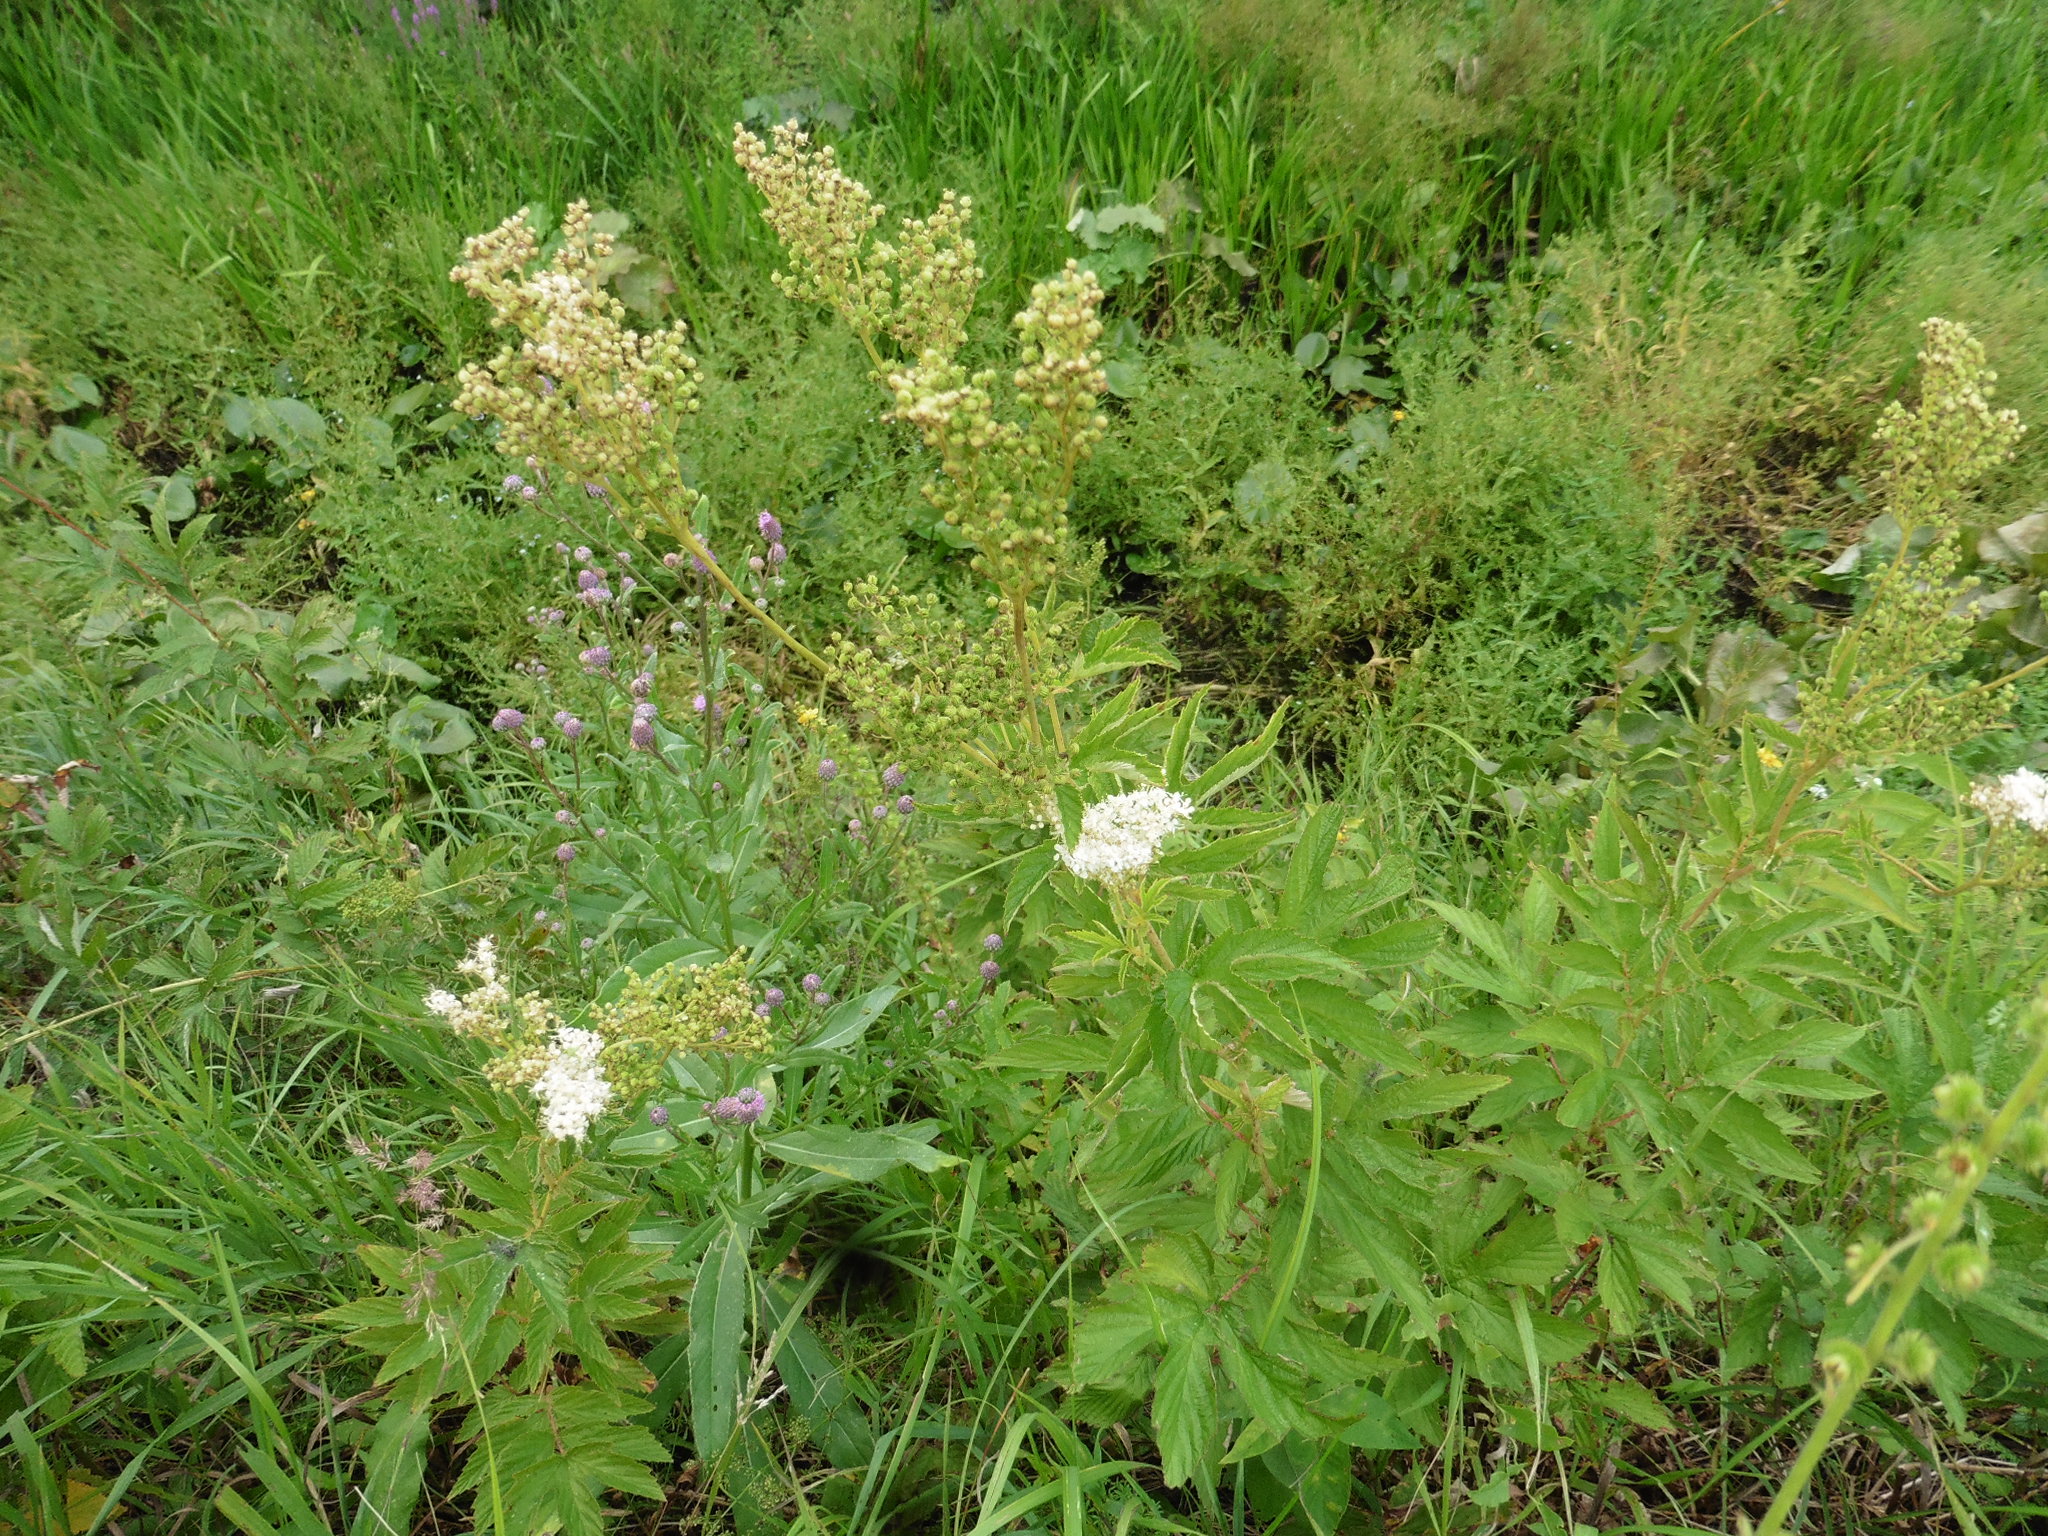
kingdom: Plantae
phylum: Tracheophyta
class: Magnoliopsida
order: Rosales
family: Rosaceae
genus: Filipendula
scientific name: Filipendula ulmaria
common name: Meadowsweet
